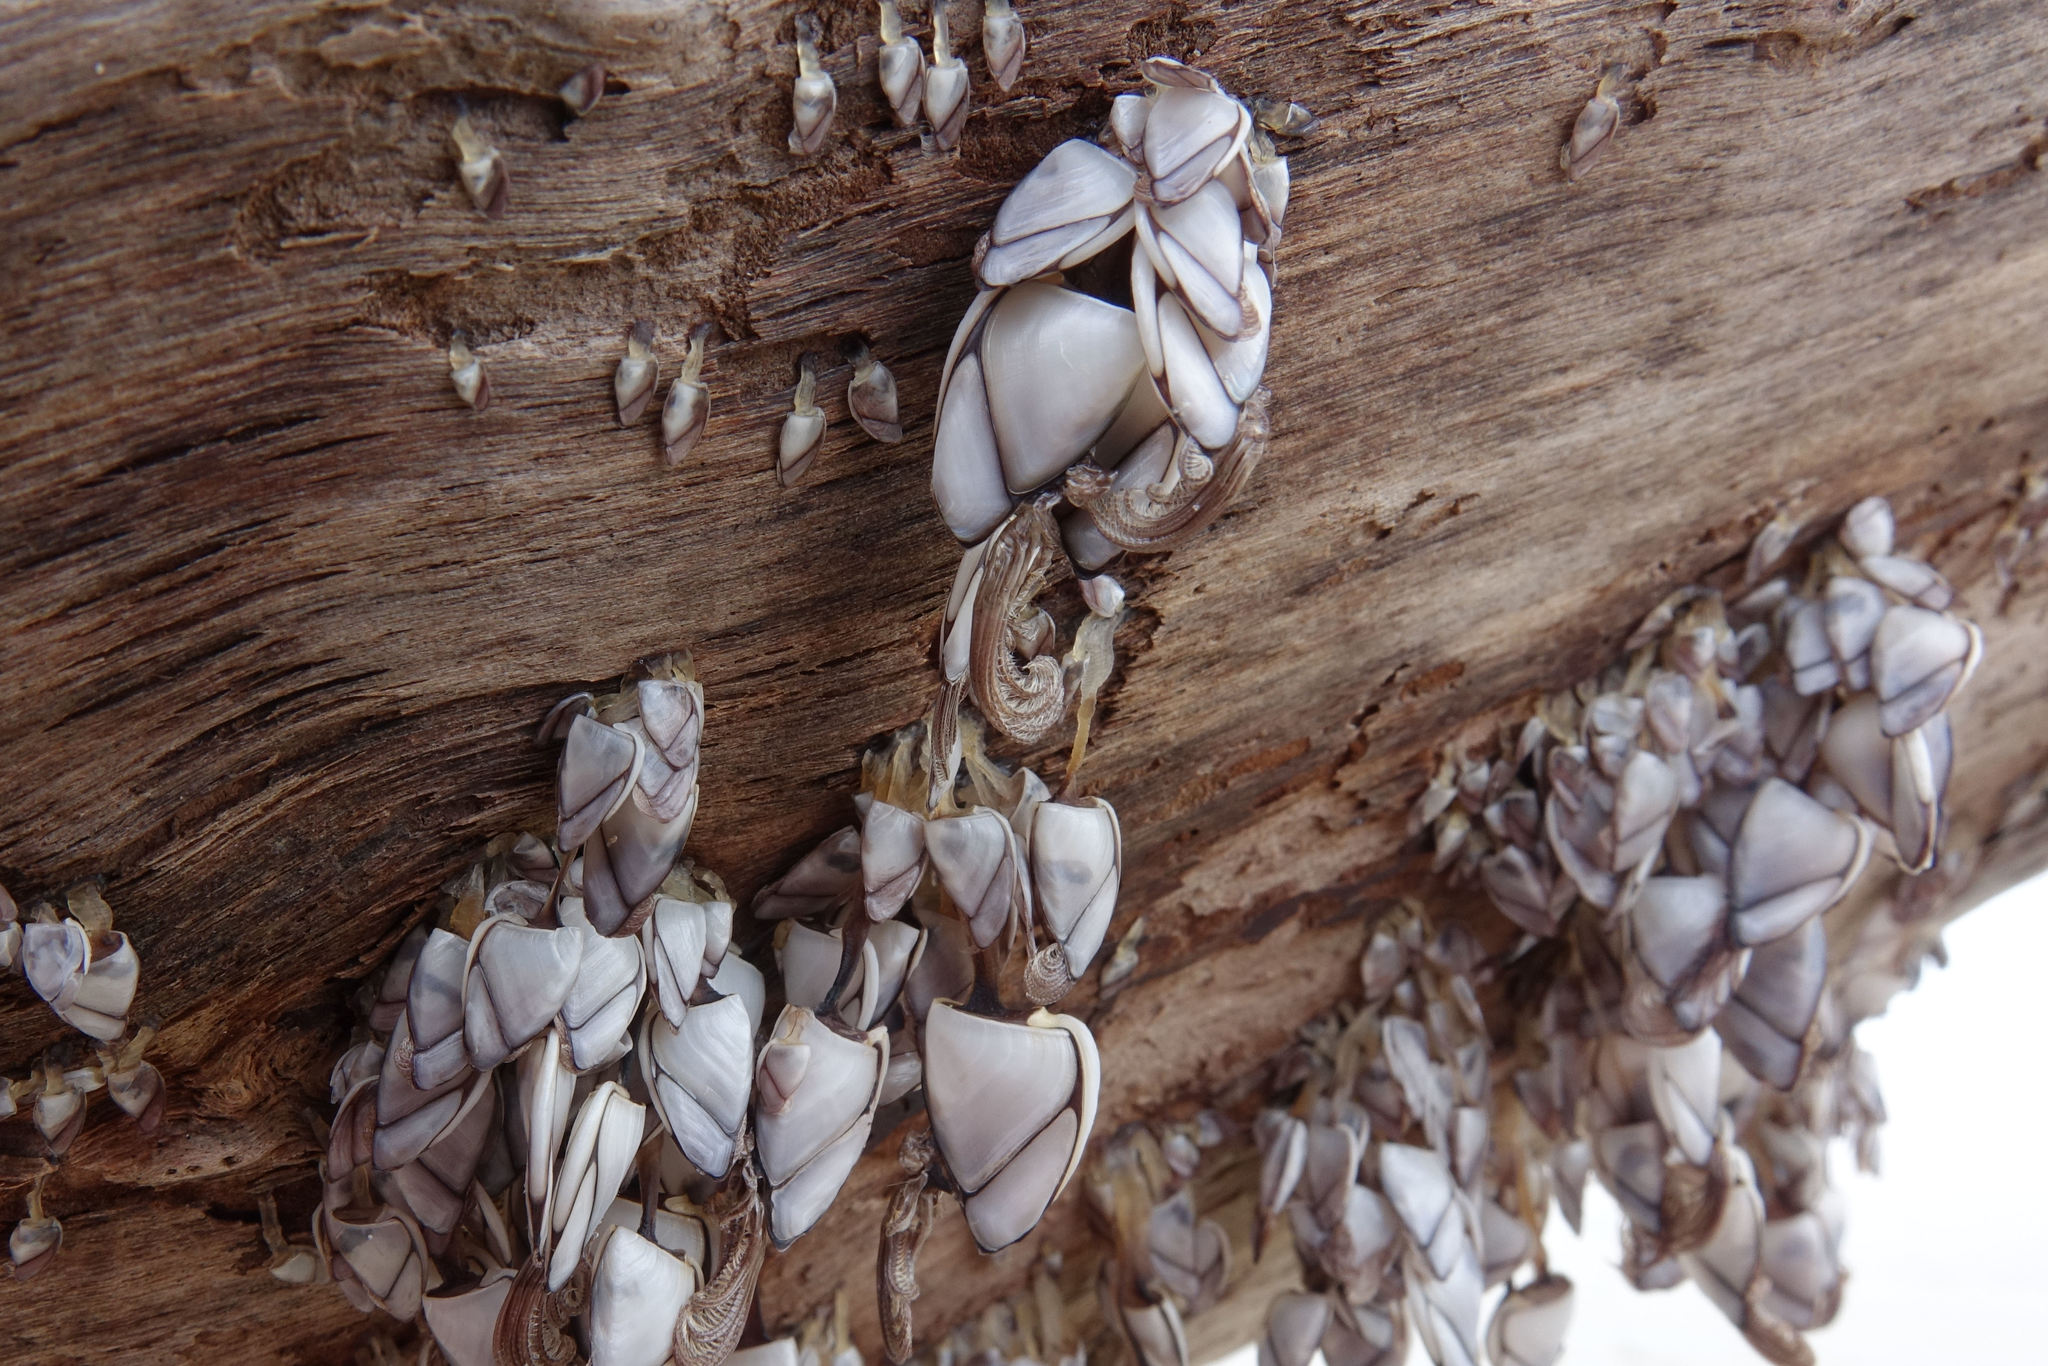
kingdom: Animalia
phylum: Arthropoda
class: Maxillopoda
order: Pedunculata
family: Lepadidae
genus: Lepas
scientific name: Lepas australis
